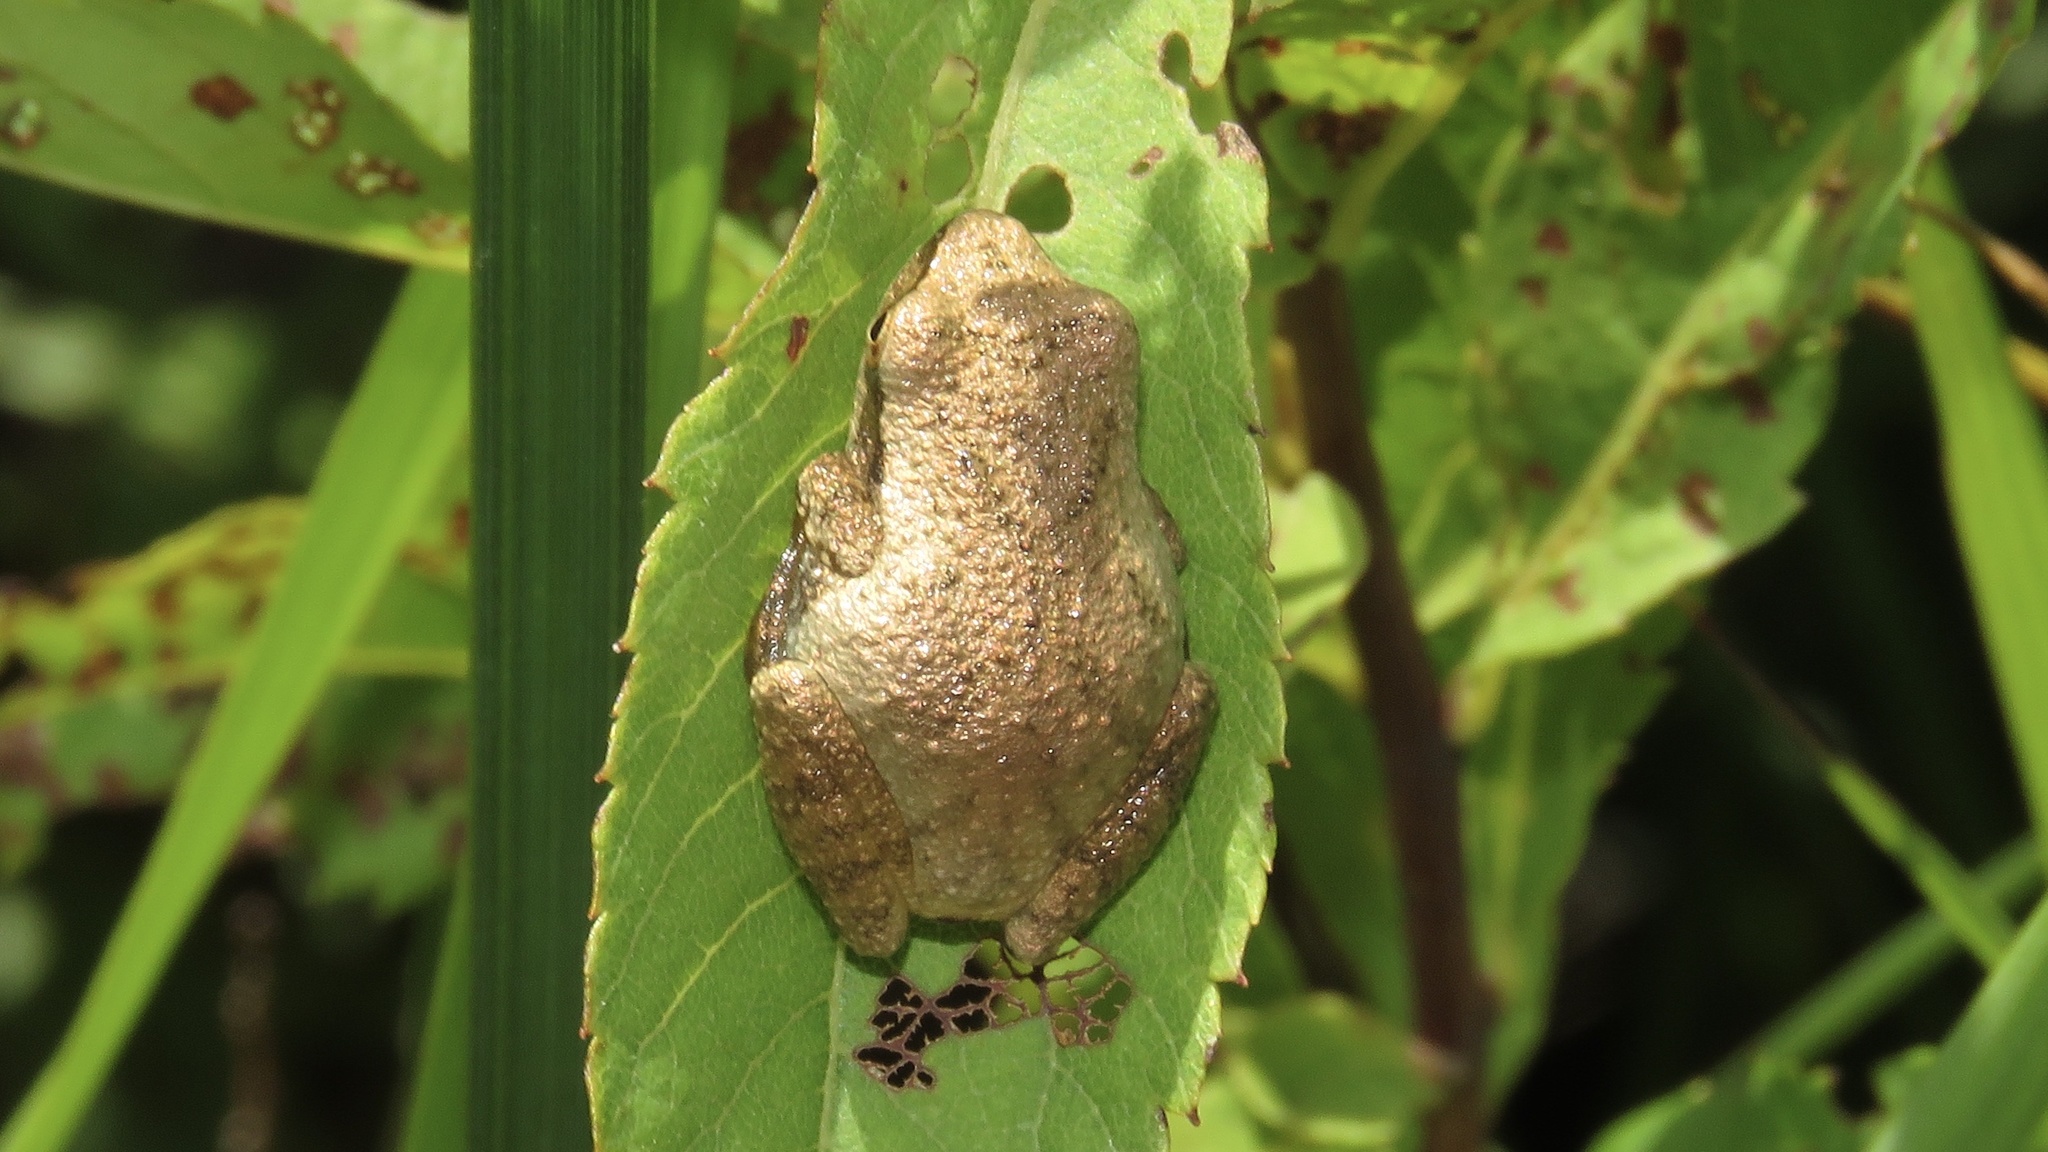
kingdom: Animalia
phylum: Chordata
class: Amphibia
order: Anura
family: Hylidae
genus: Pseudacris
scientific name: Pseudacris crucifer
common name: Spring peeper
